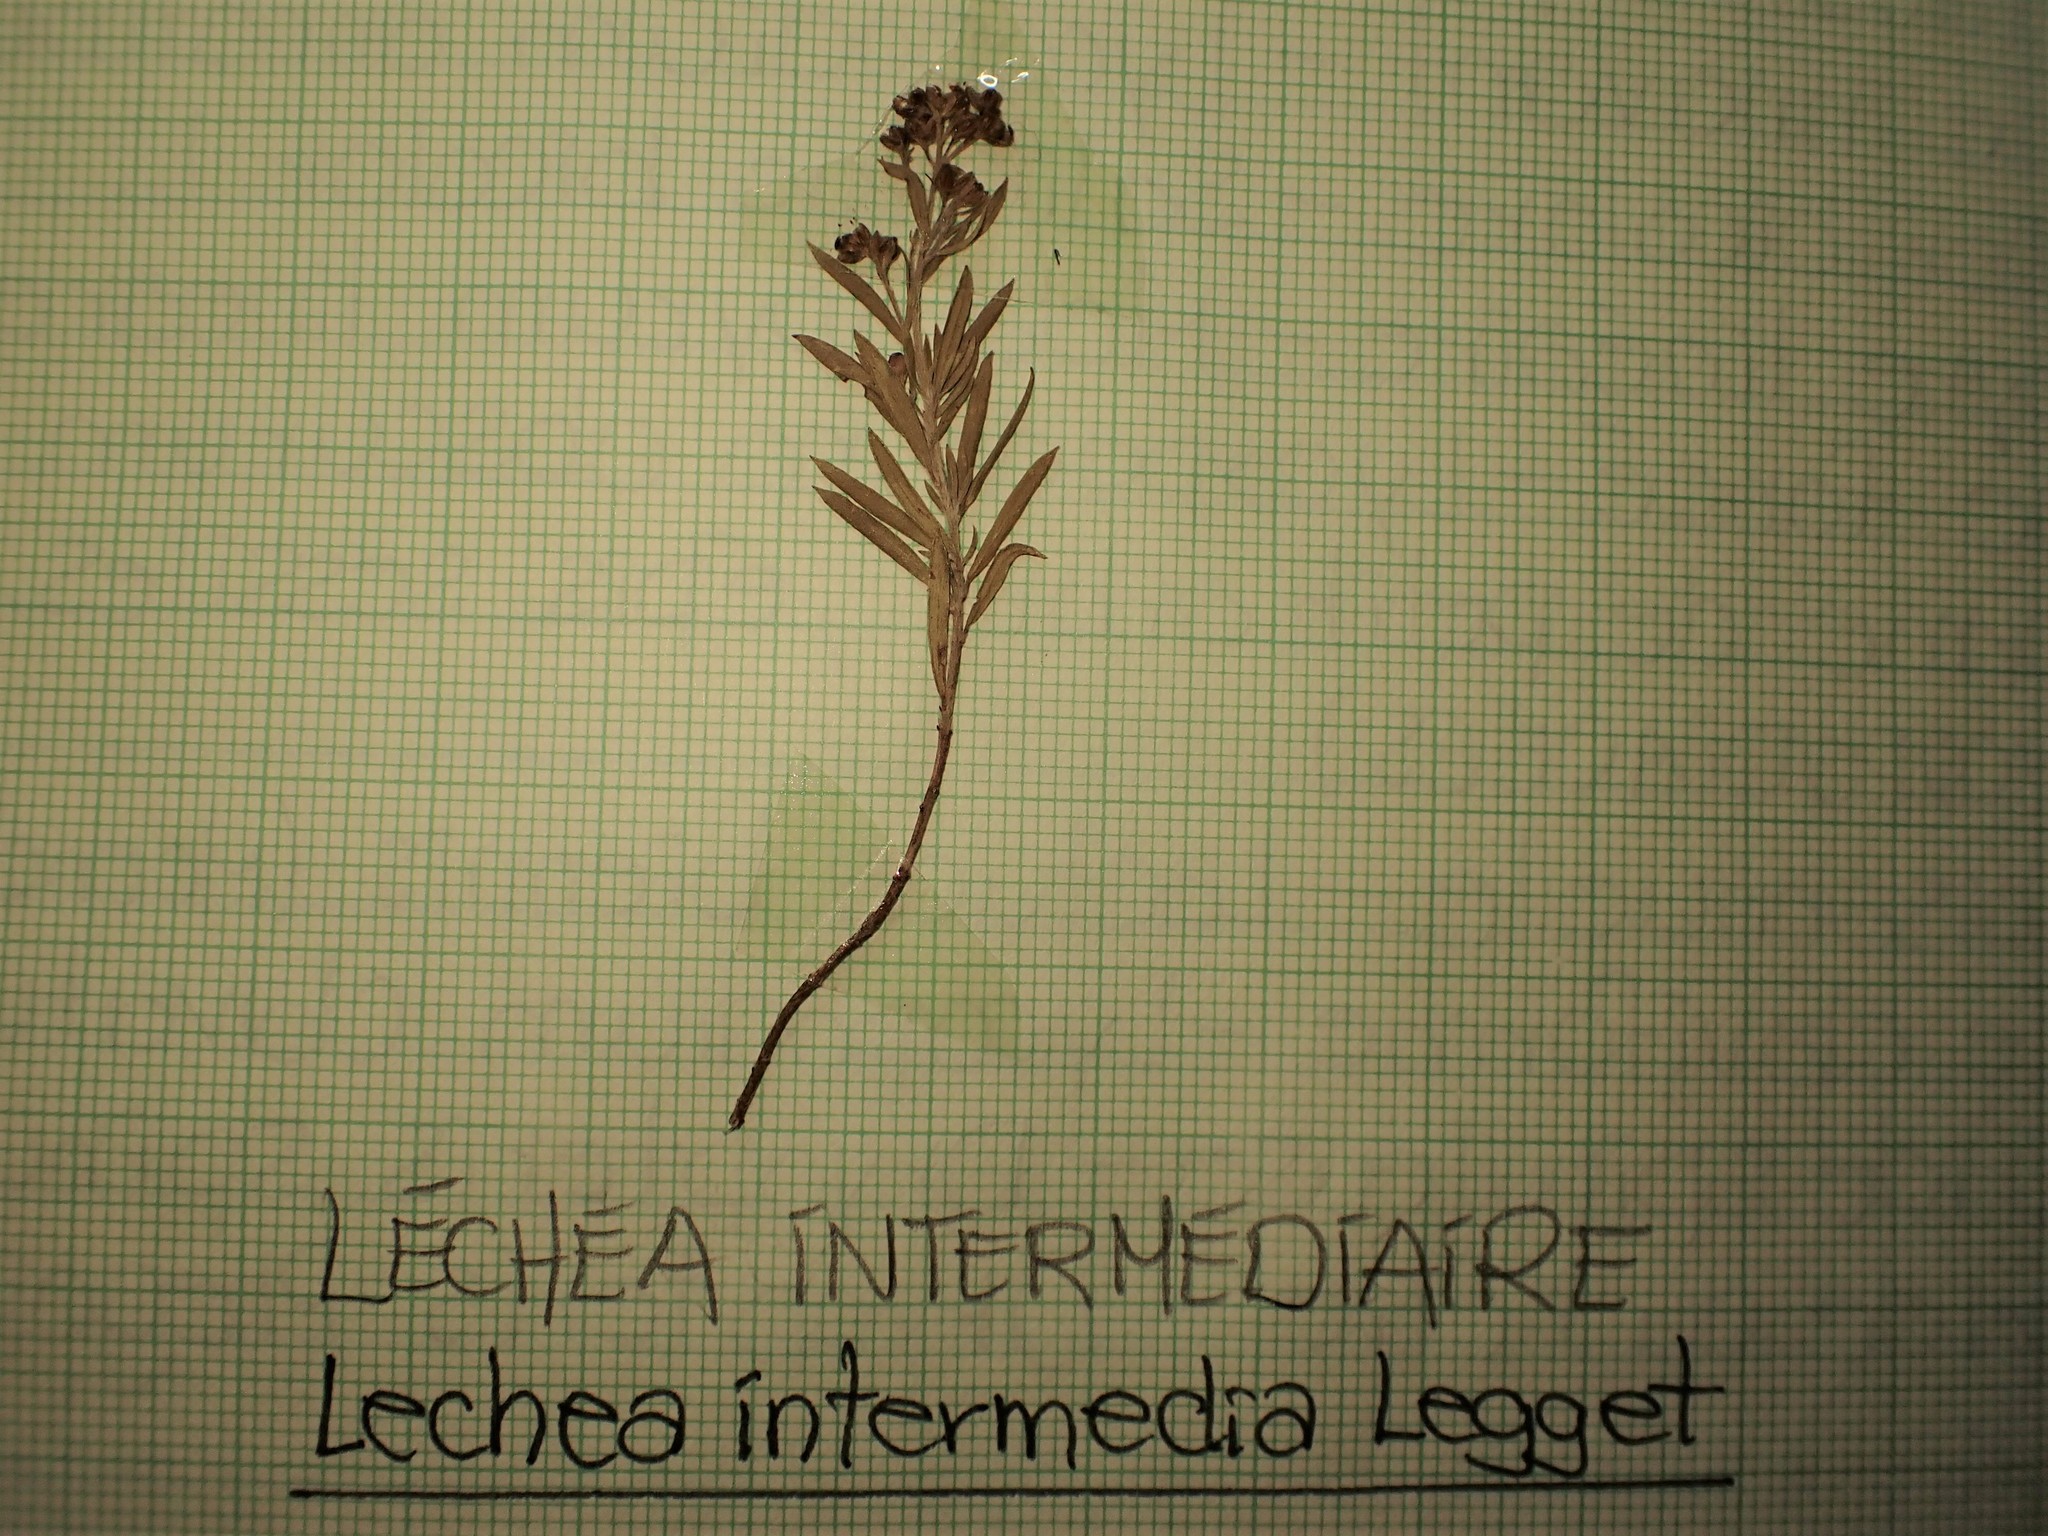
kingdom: Plantae
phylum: Tracheophyta
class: Magnoliopsida
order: Malvales
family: Cistaceae
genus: Lechea
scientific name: Lechea intermedia
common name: Intermediate pinweed
